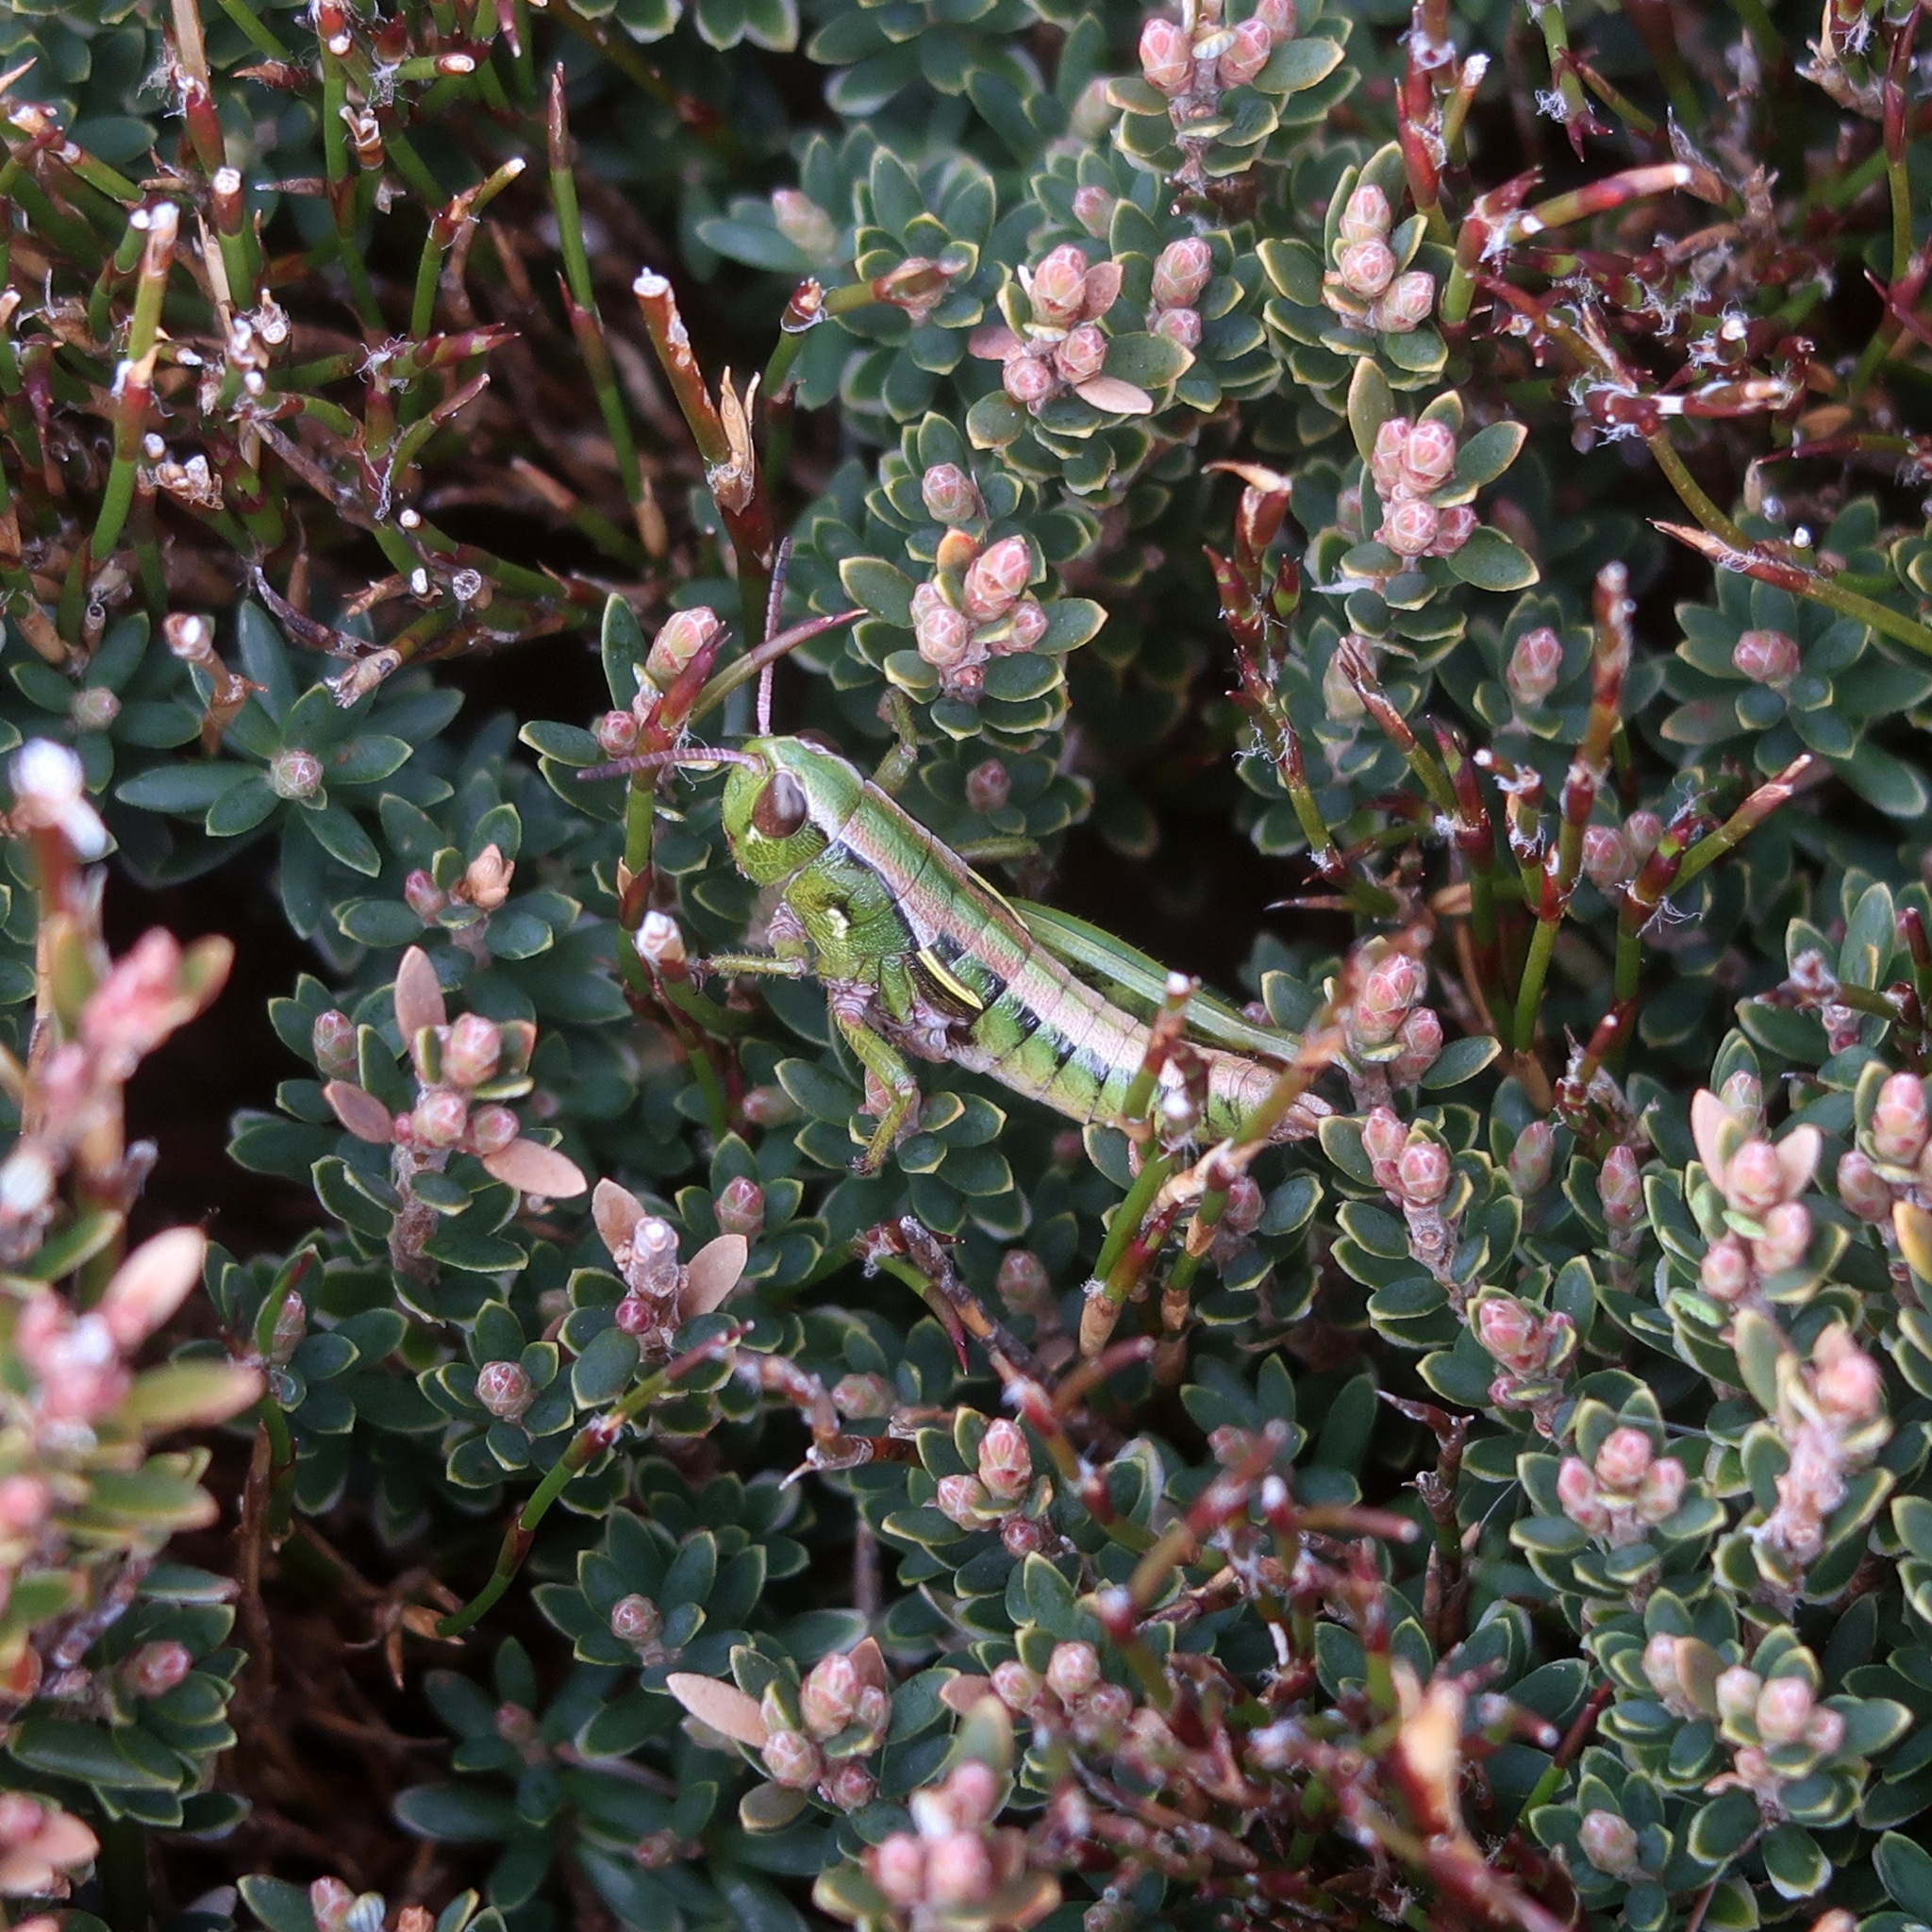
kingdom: Animalia
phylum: Arthropoda
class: Insecta
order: Orthoptera
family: Acrididae
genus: Russalpia
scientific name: Russalpia albertisi
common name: Tassie hopper
